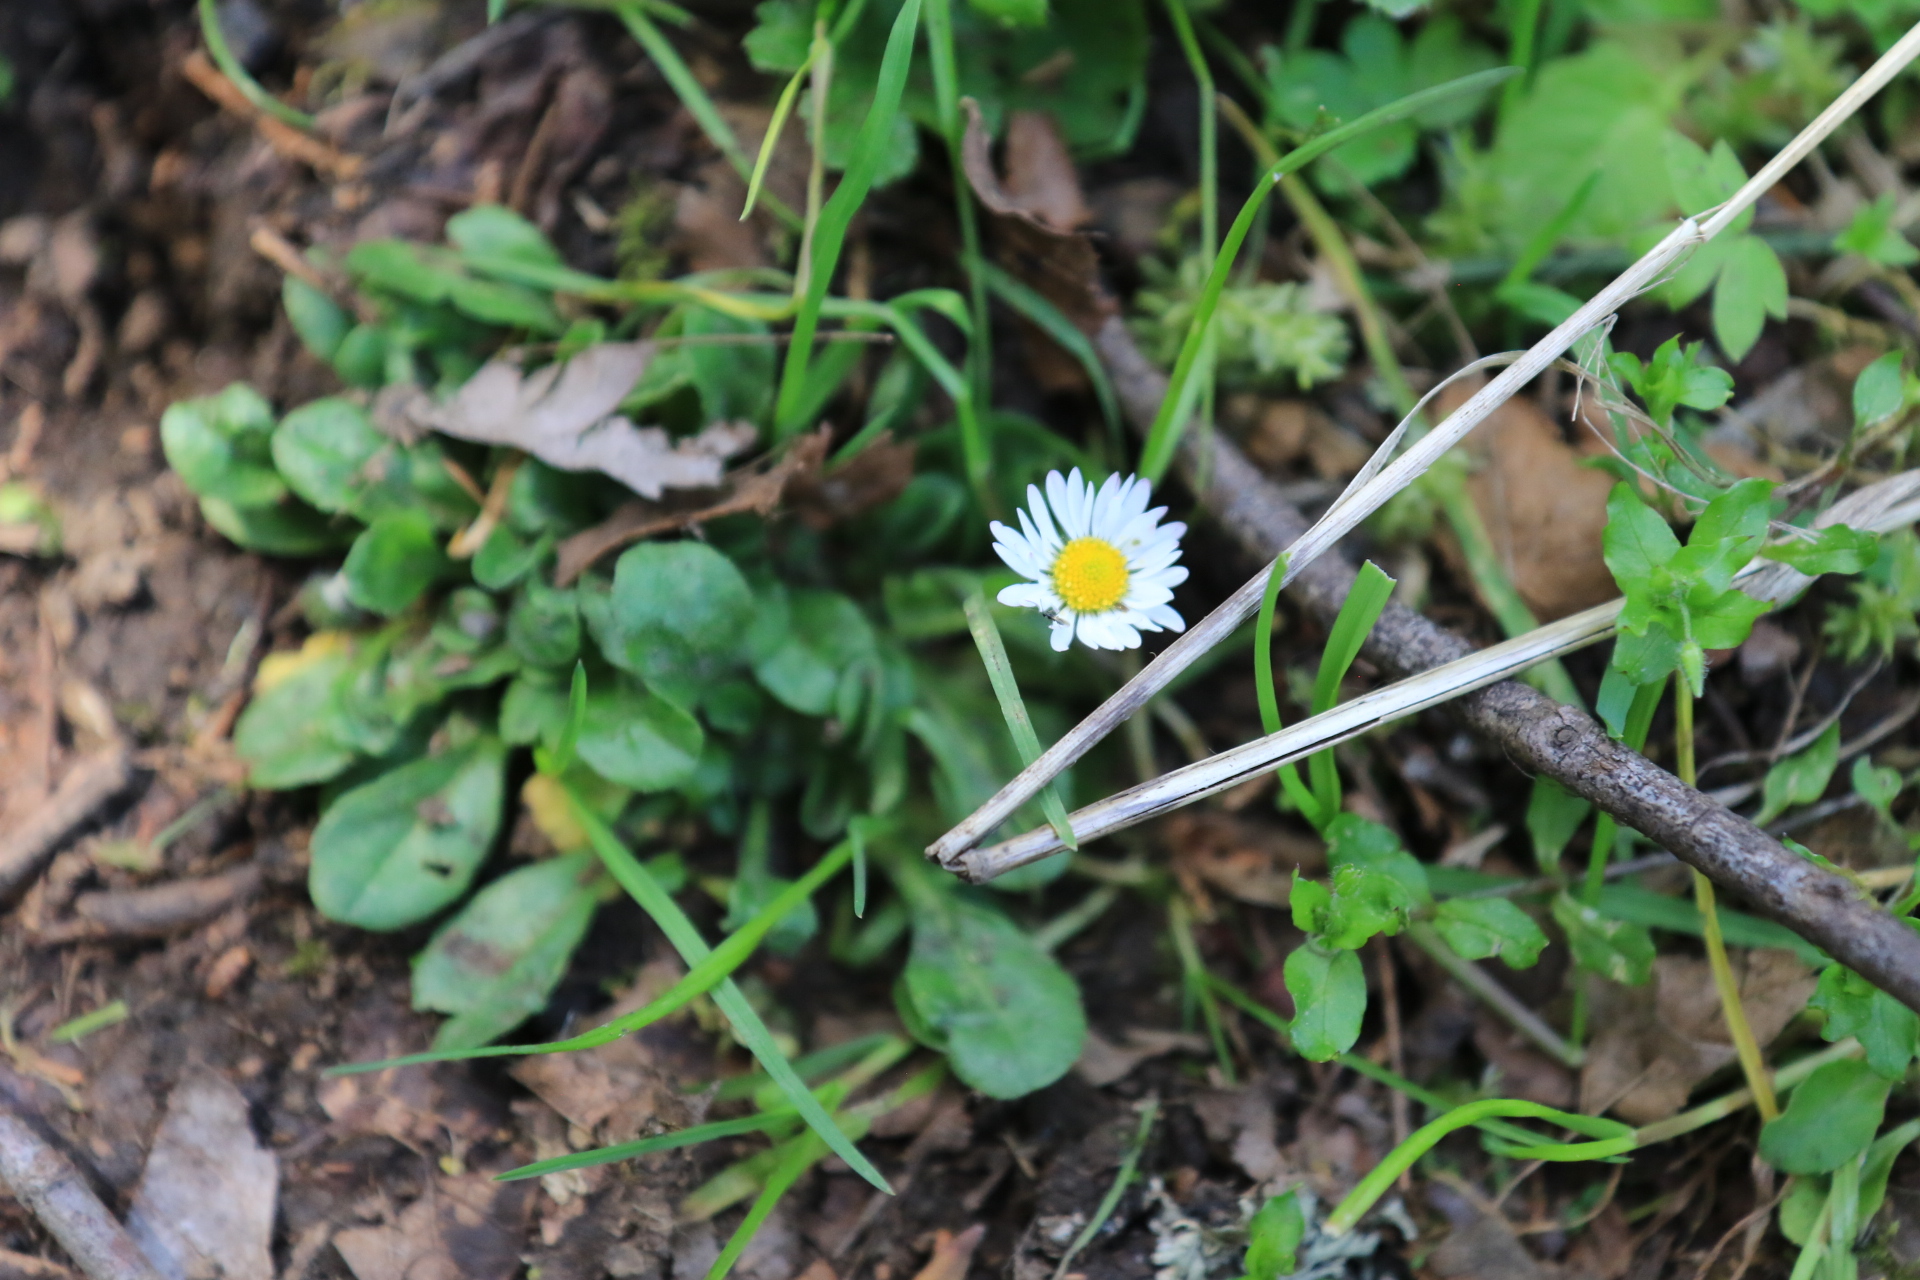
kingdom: Plantae
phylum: Tracheophyta
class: Magnoliopsida
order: Asterales
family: Asteraceae
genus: Bellis
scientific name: Bellis perennis
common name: Lawndaisy
